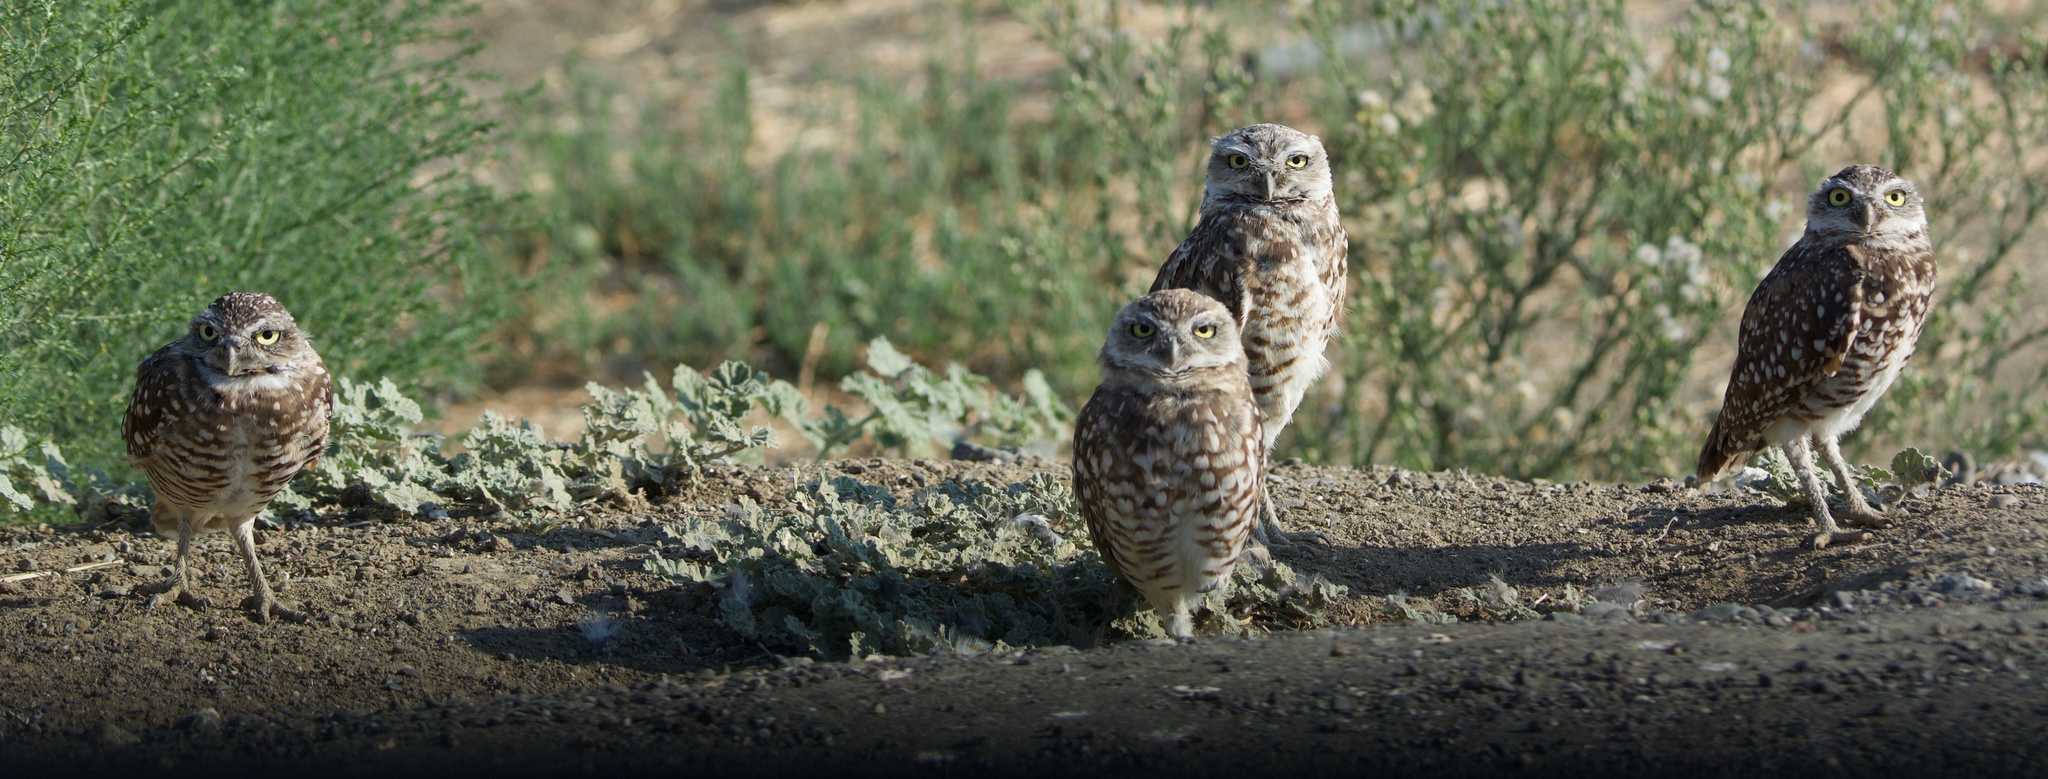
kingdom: Animalia
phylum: Chordata
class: Aves
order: Strigiformes
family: Strigidae
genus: Athene
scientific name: Athene cunicularia
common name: Burrowing owl
